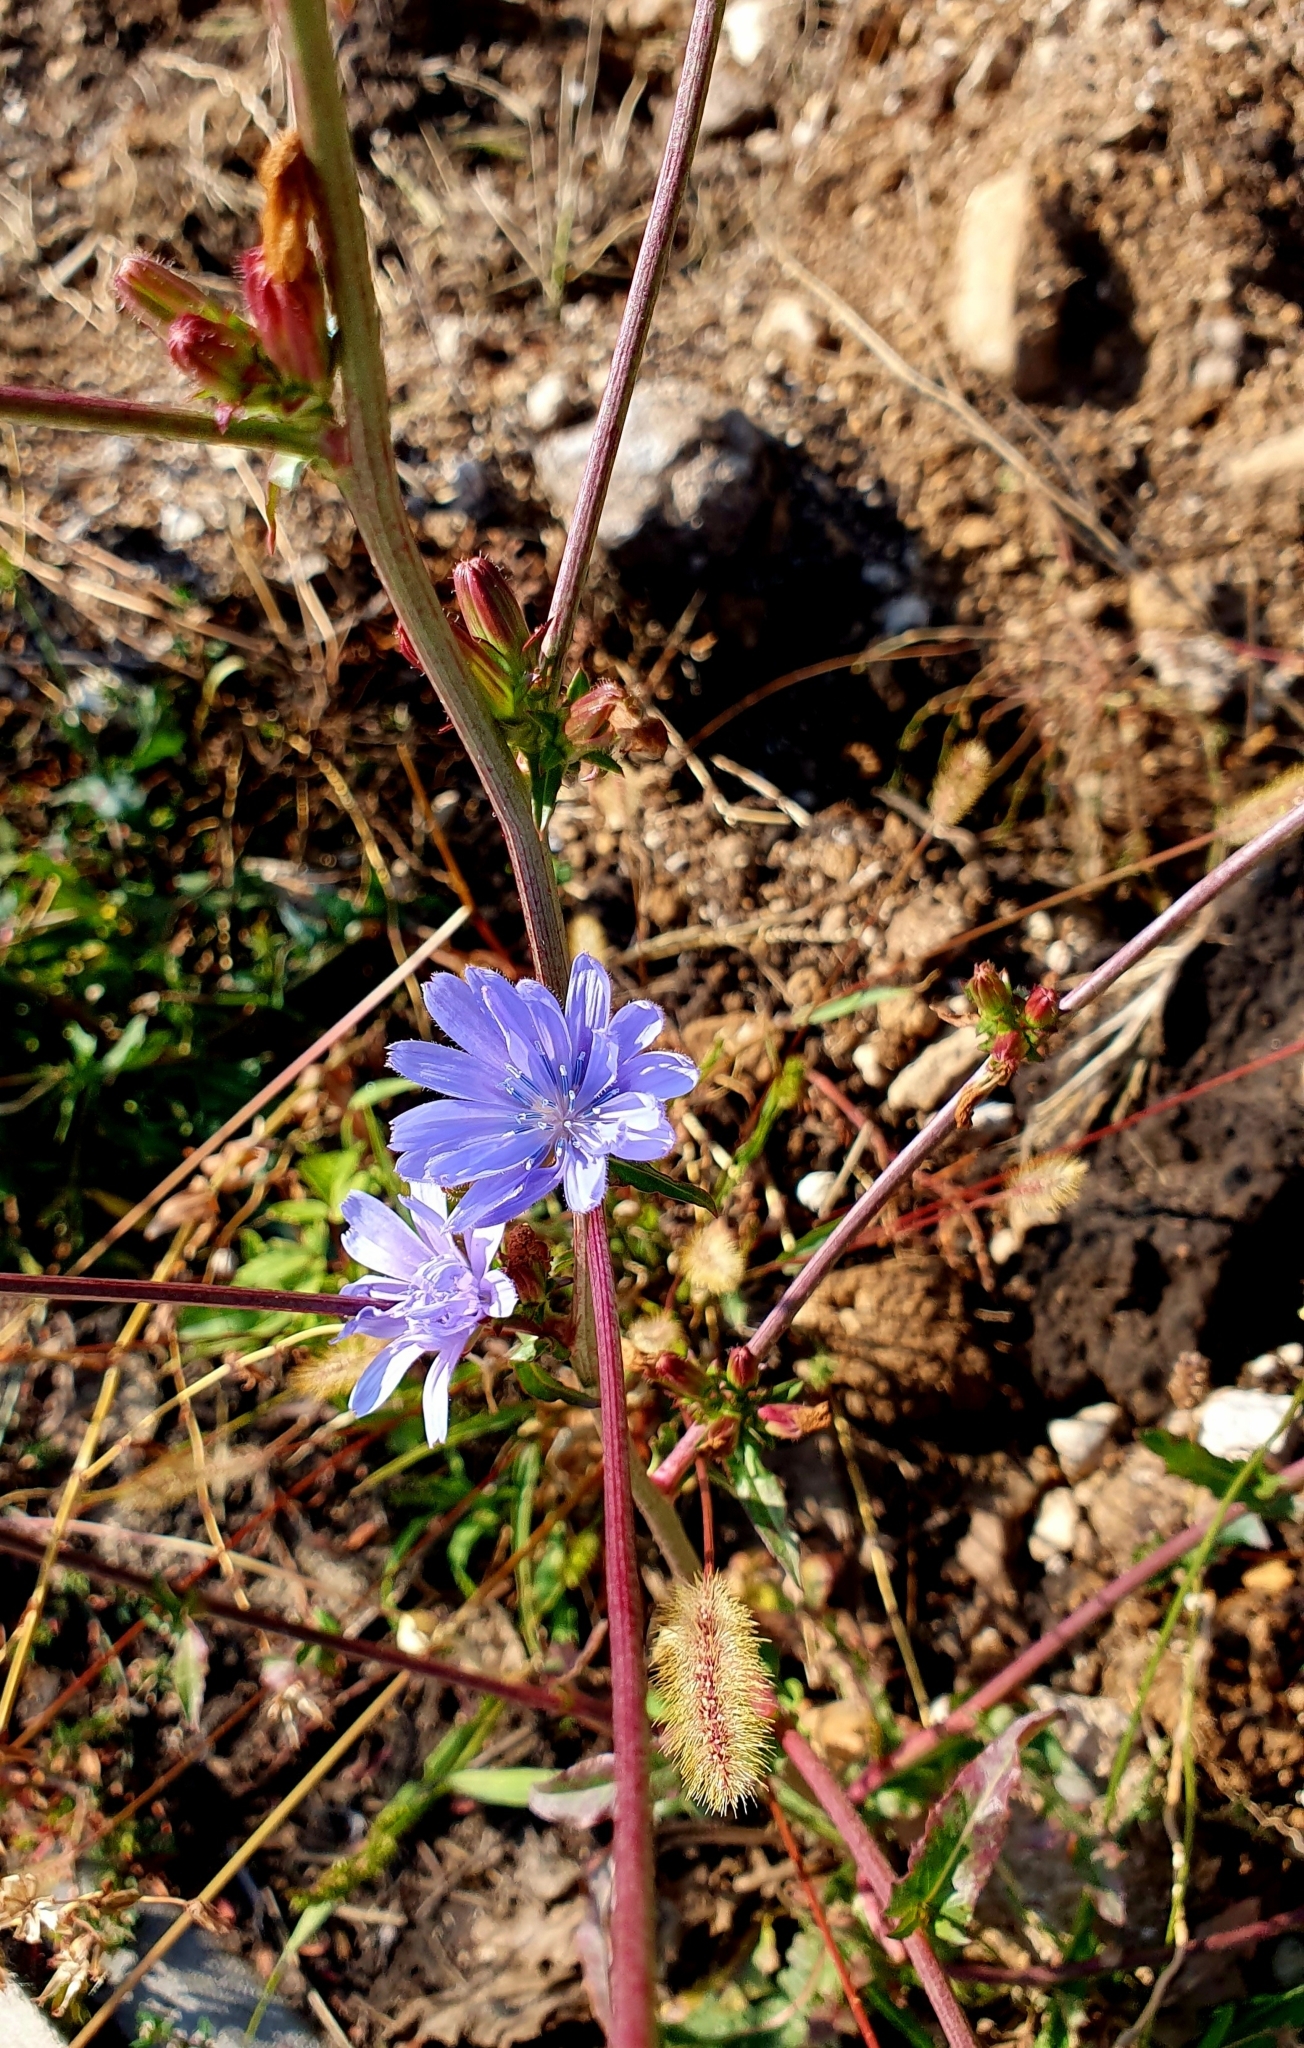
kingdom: Plantae
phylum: Tracheophyta
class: Magnoliopsida
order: Asterales
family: Asteraceae
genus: Cichorium
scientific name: Cichorium intybus
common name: Chicory
